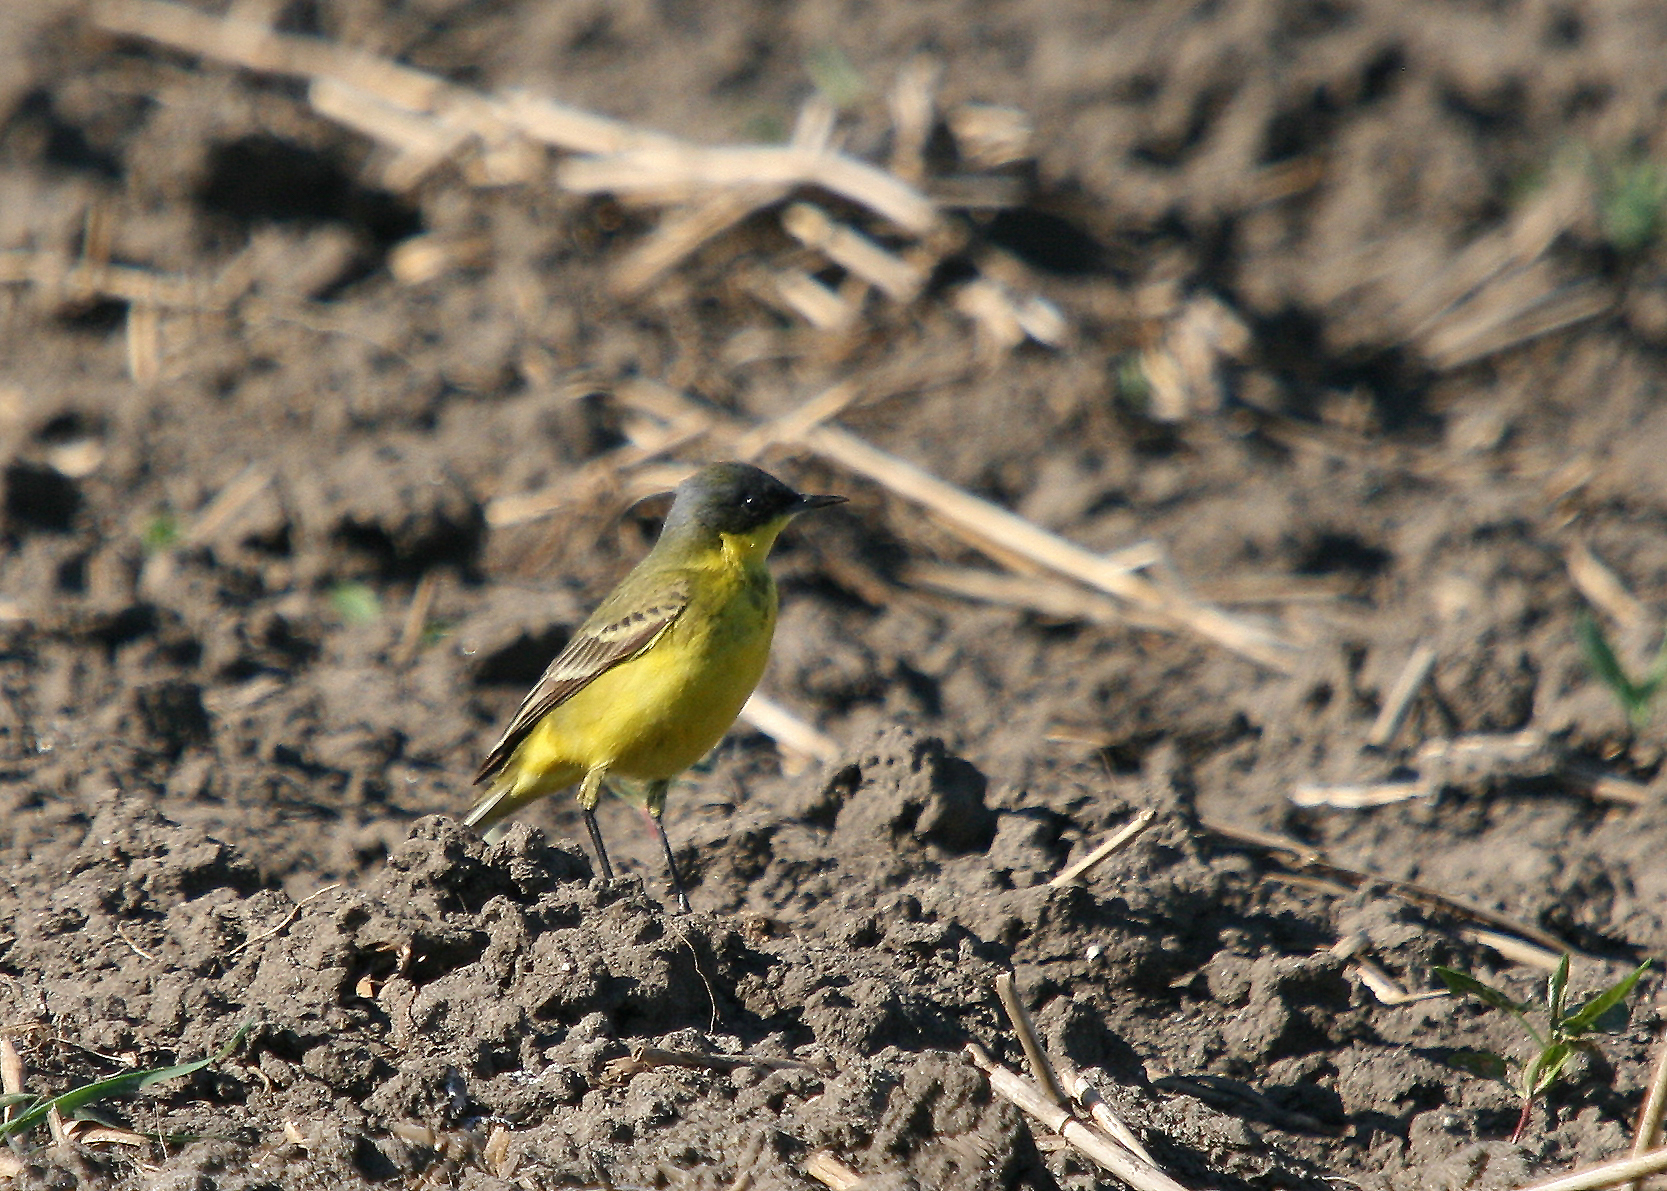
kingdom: Animalia
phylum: Chordata
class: Aves
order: Passeriformes
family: Motacillidae
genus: Motacilla
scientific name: Motacilla flava
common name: Western yellow wagtail
